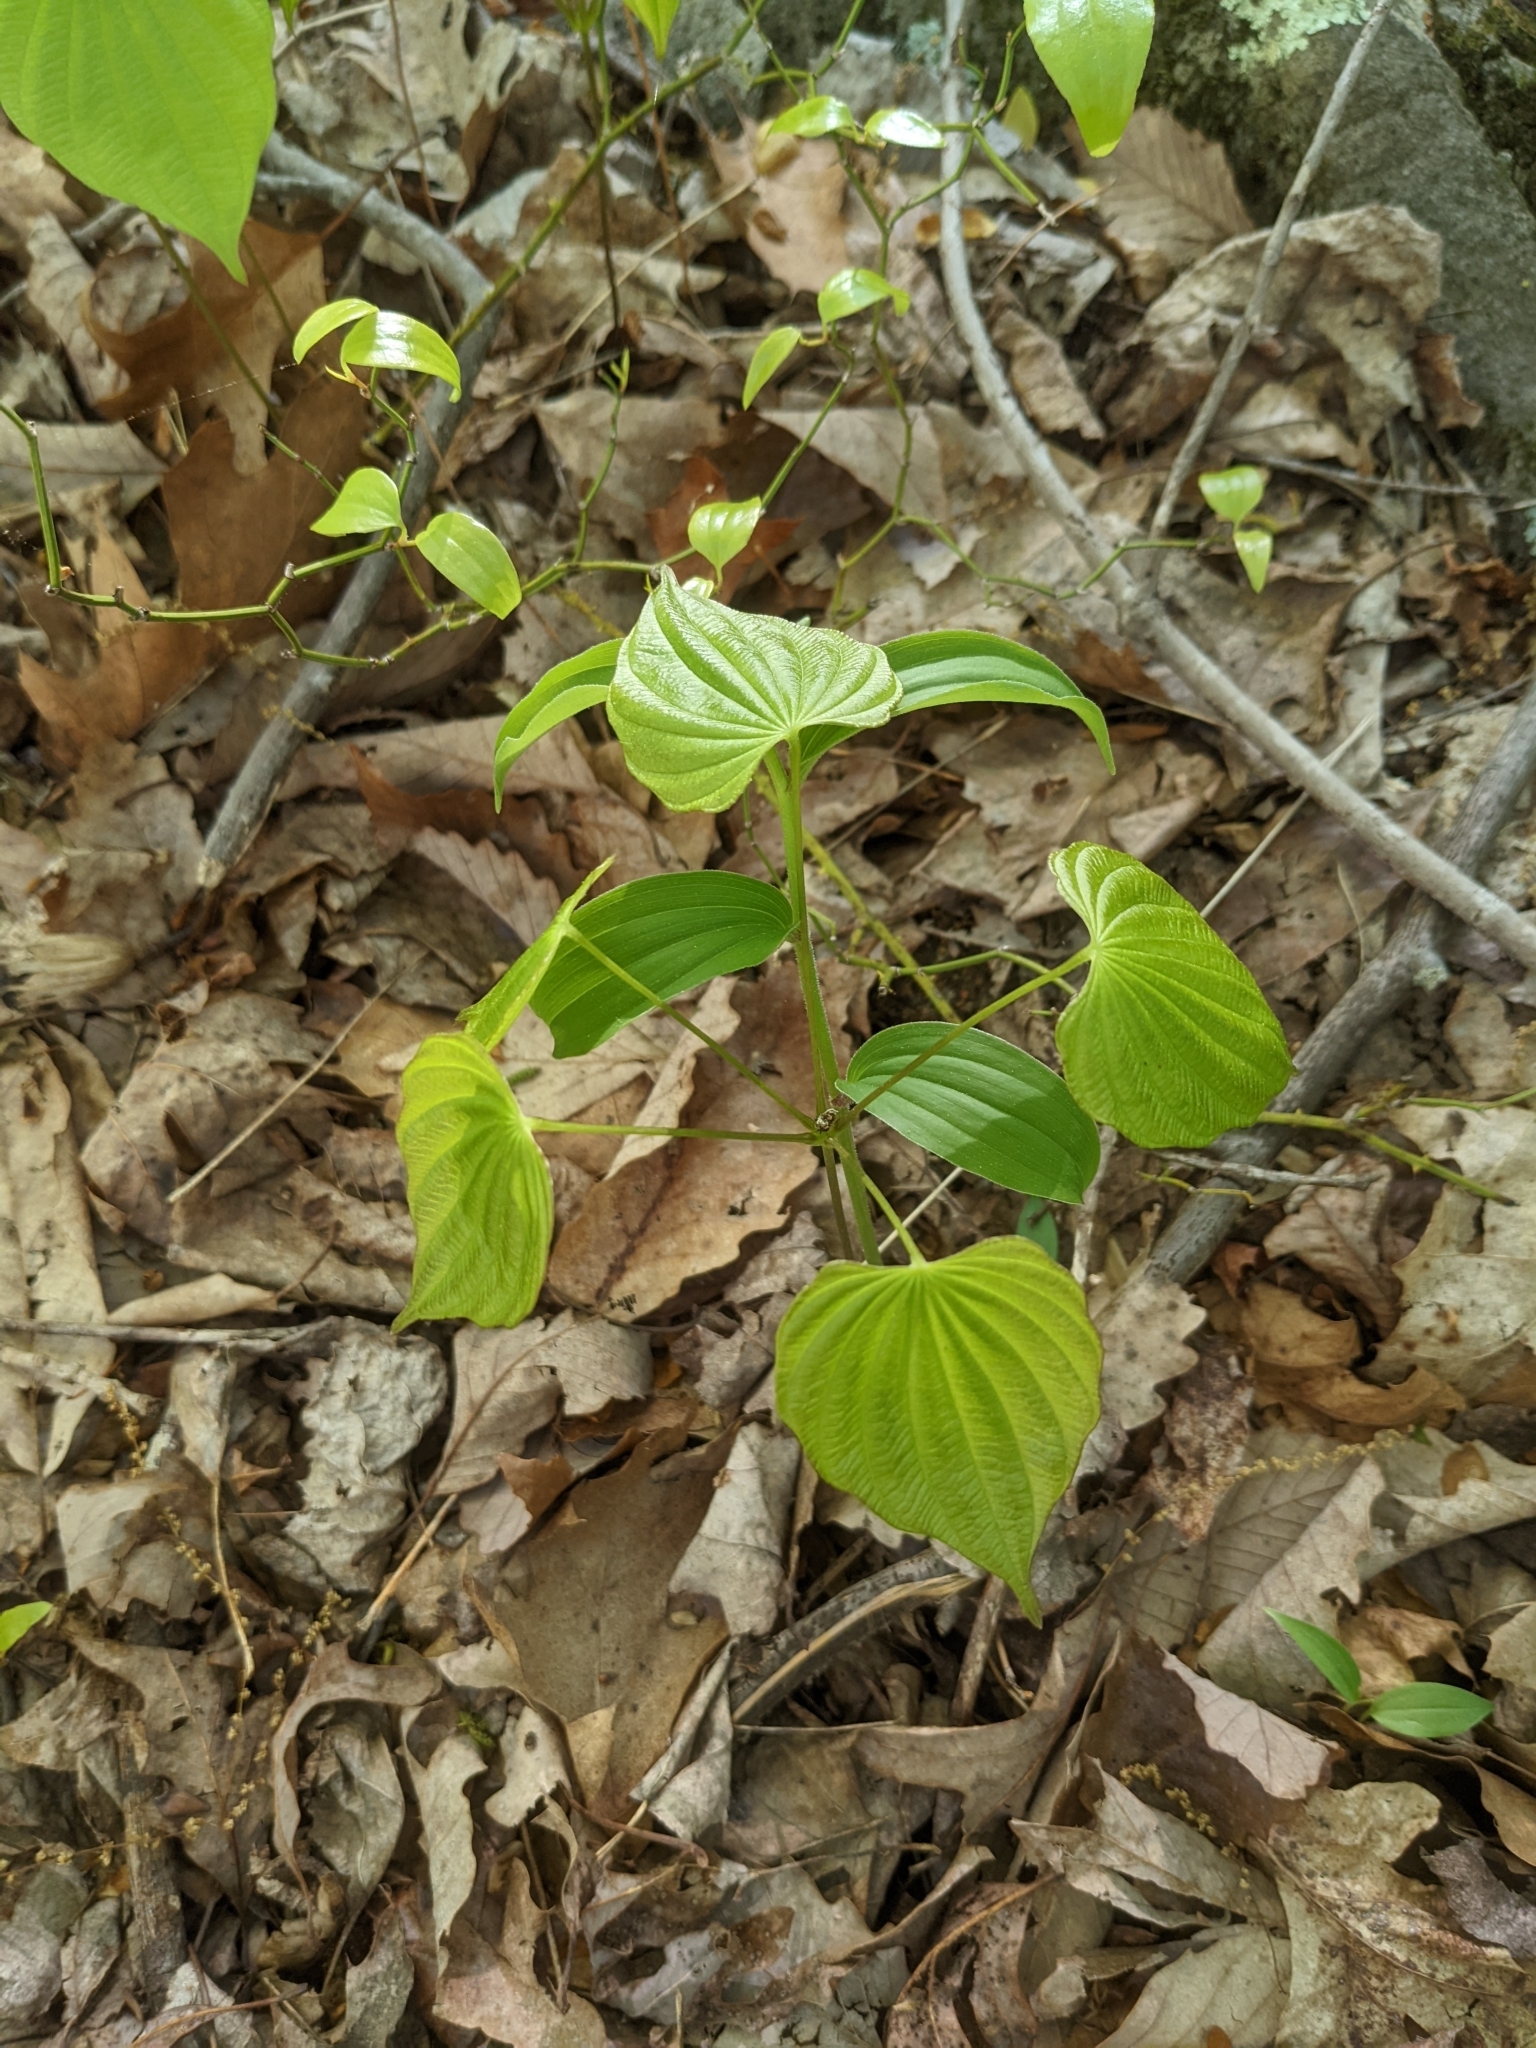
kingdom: Plantae
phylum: Tracheophyta
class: Liliopsida
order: Dioscoreales
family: Dioscoreaceae
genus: Dioscorea
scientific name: Dioscorea villosa
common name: Wild yam
